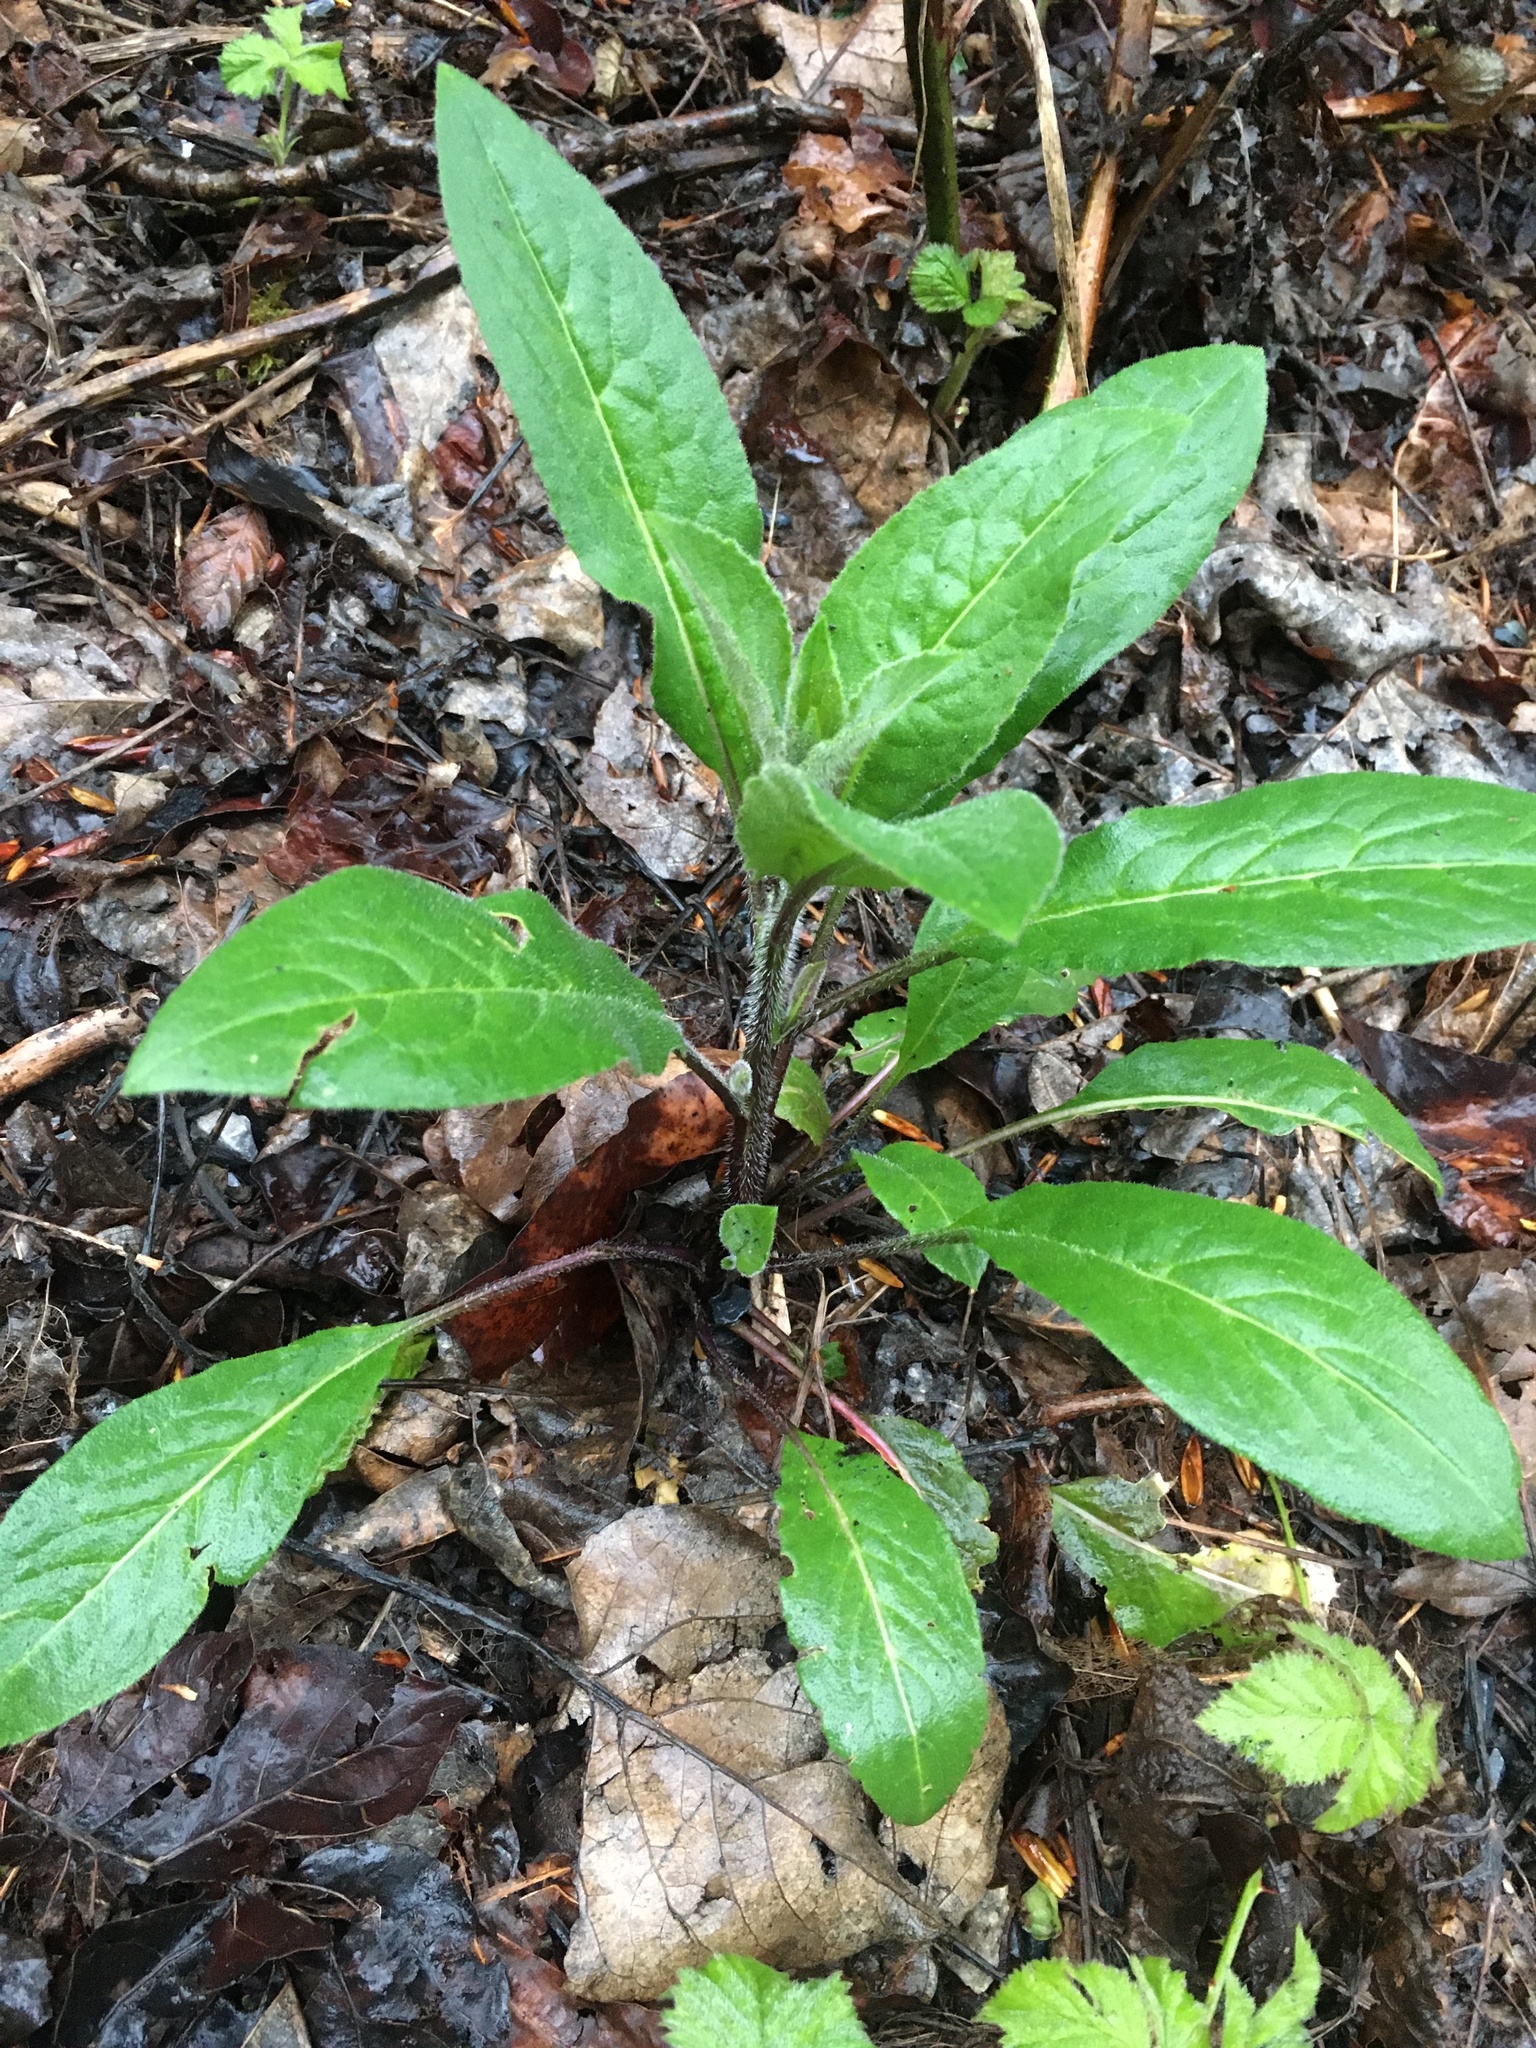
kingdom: Plantae
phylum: Tracheophyta
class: Magnoliopsida
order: Brassicales
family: Brassicaceae
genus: Hesperis
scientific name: Hesperis matronalis
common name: Dame's-violet
